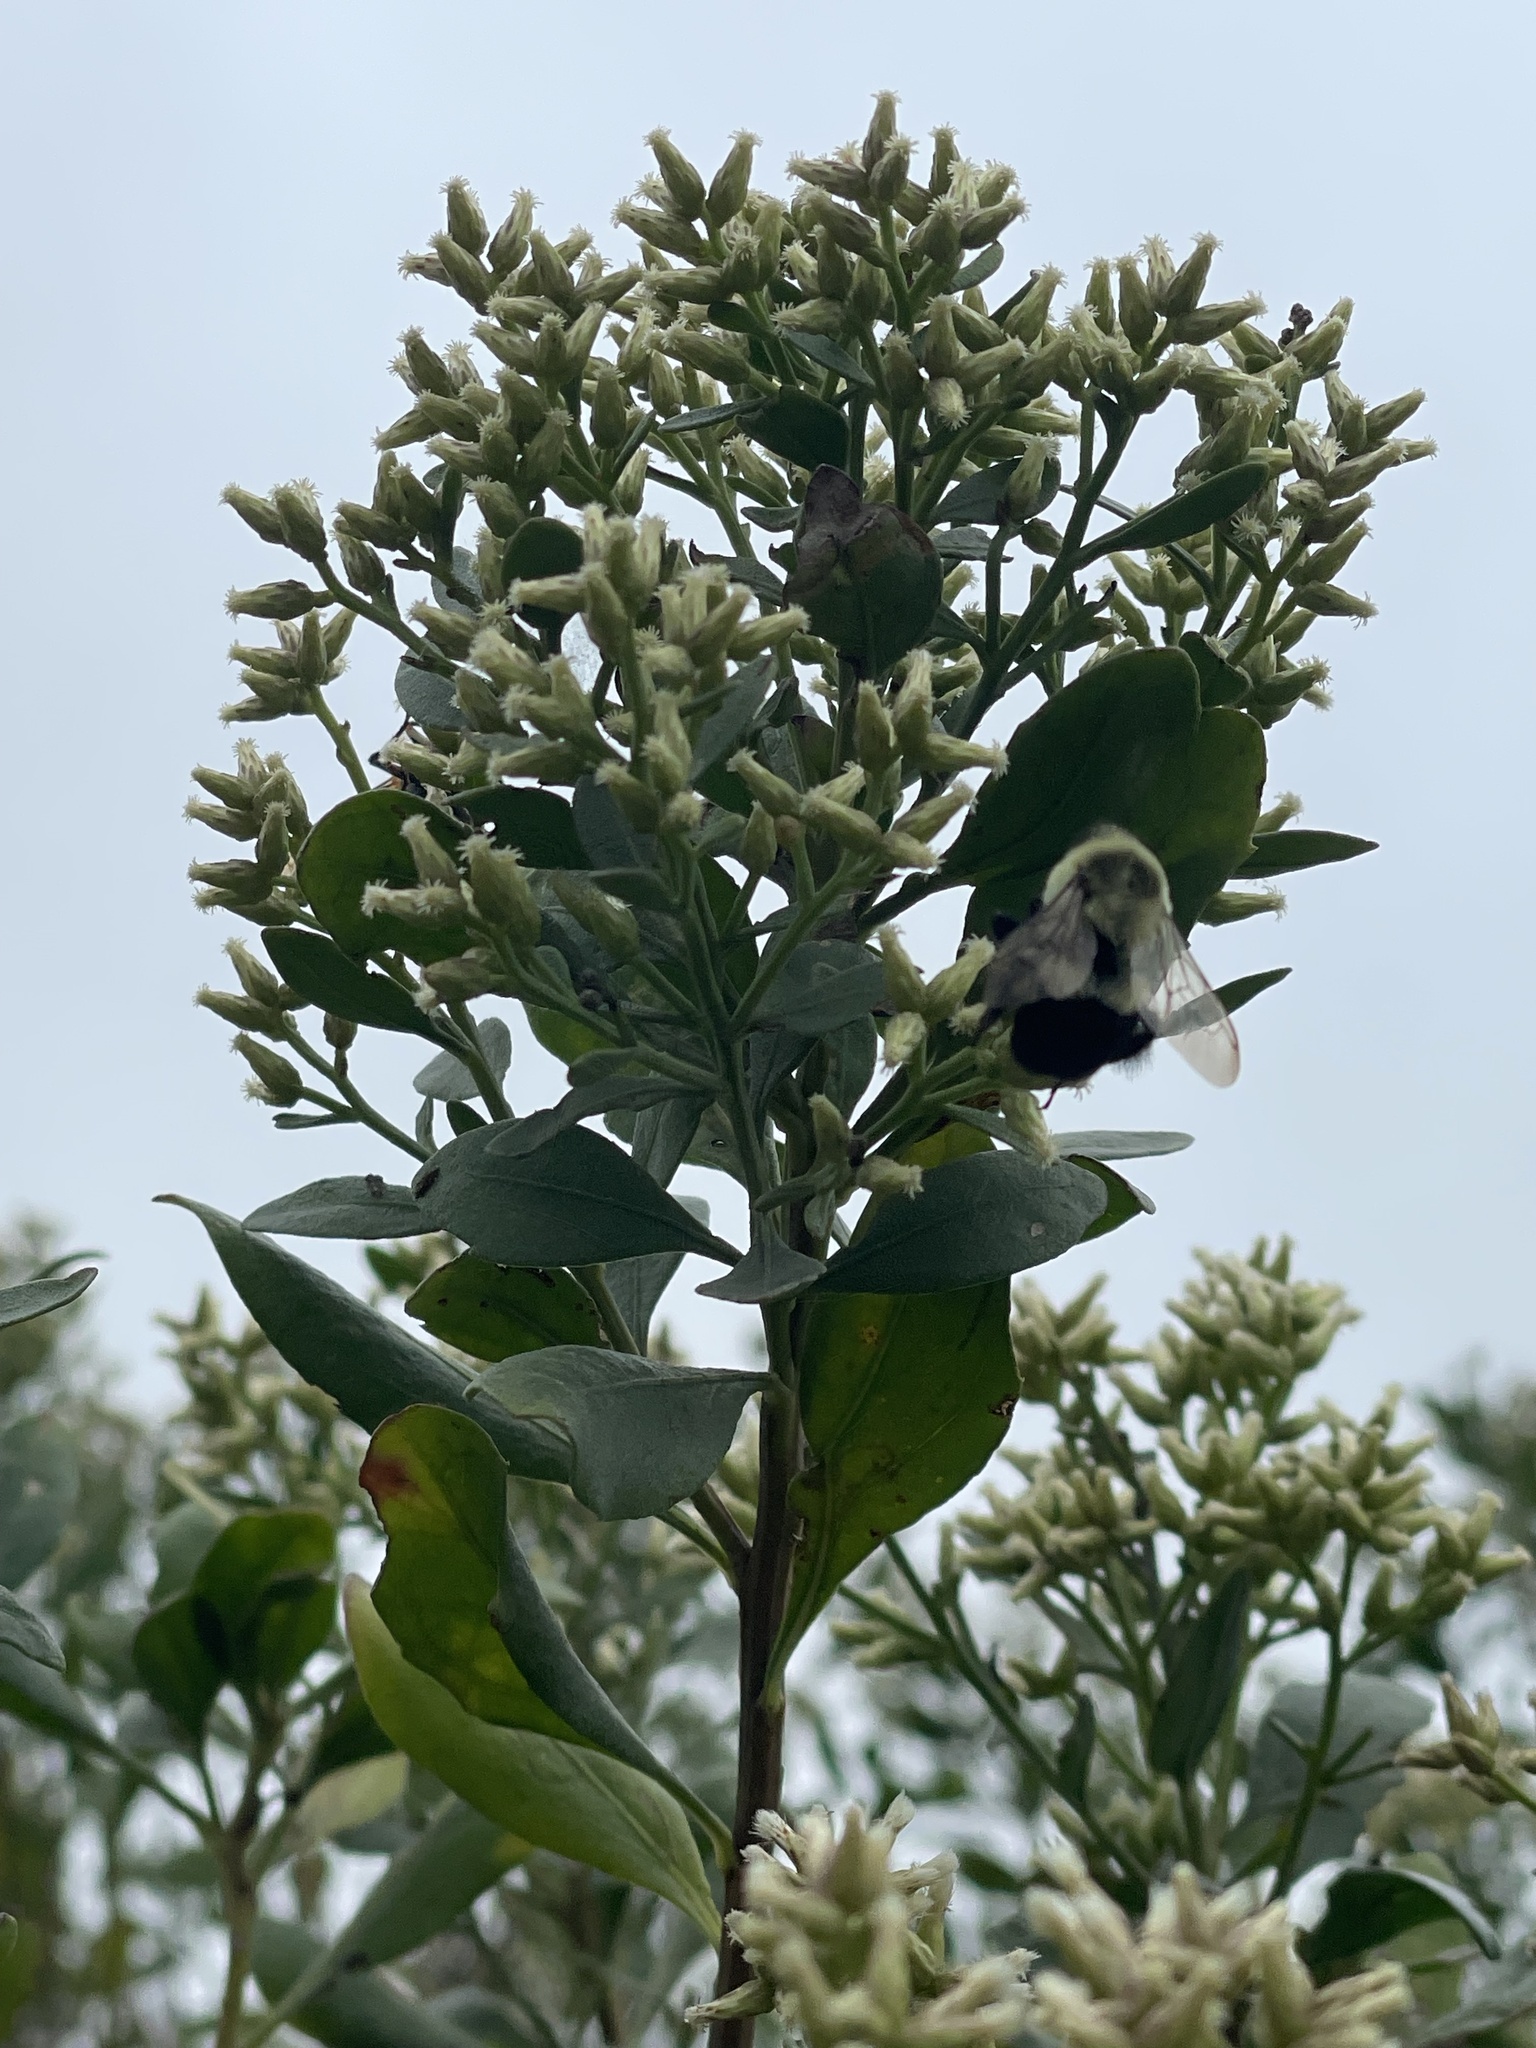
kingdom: Animalia
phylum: Arthropoda
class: Insecta
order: Hymenoptera
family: Apidae
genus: Bombus
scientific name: Bombus impatiens
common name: Common eastern bumble bee
